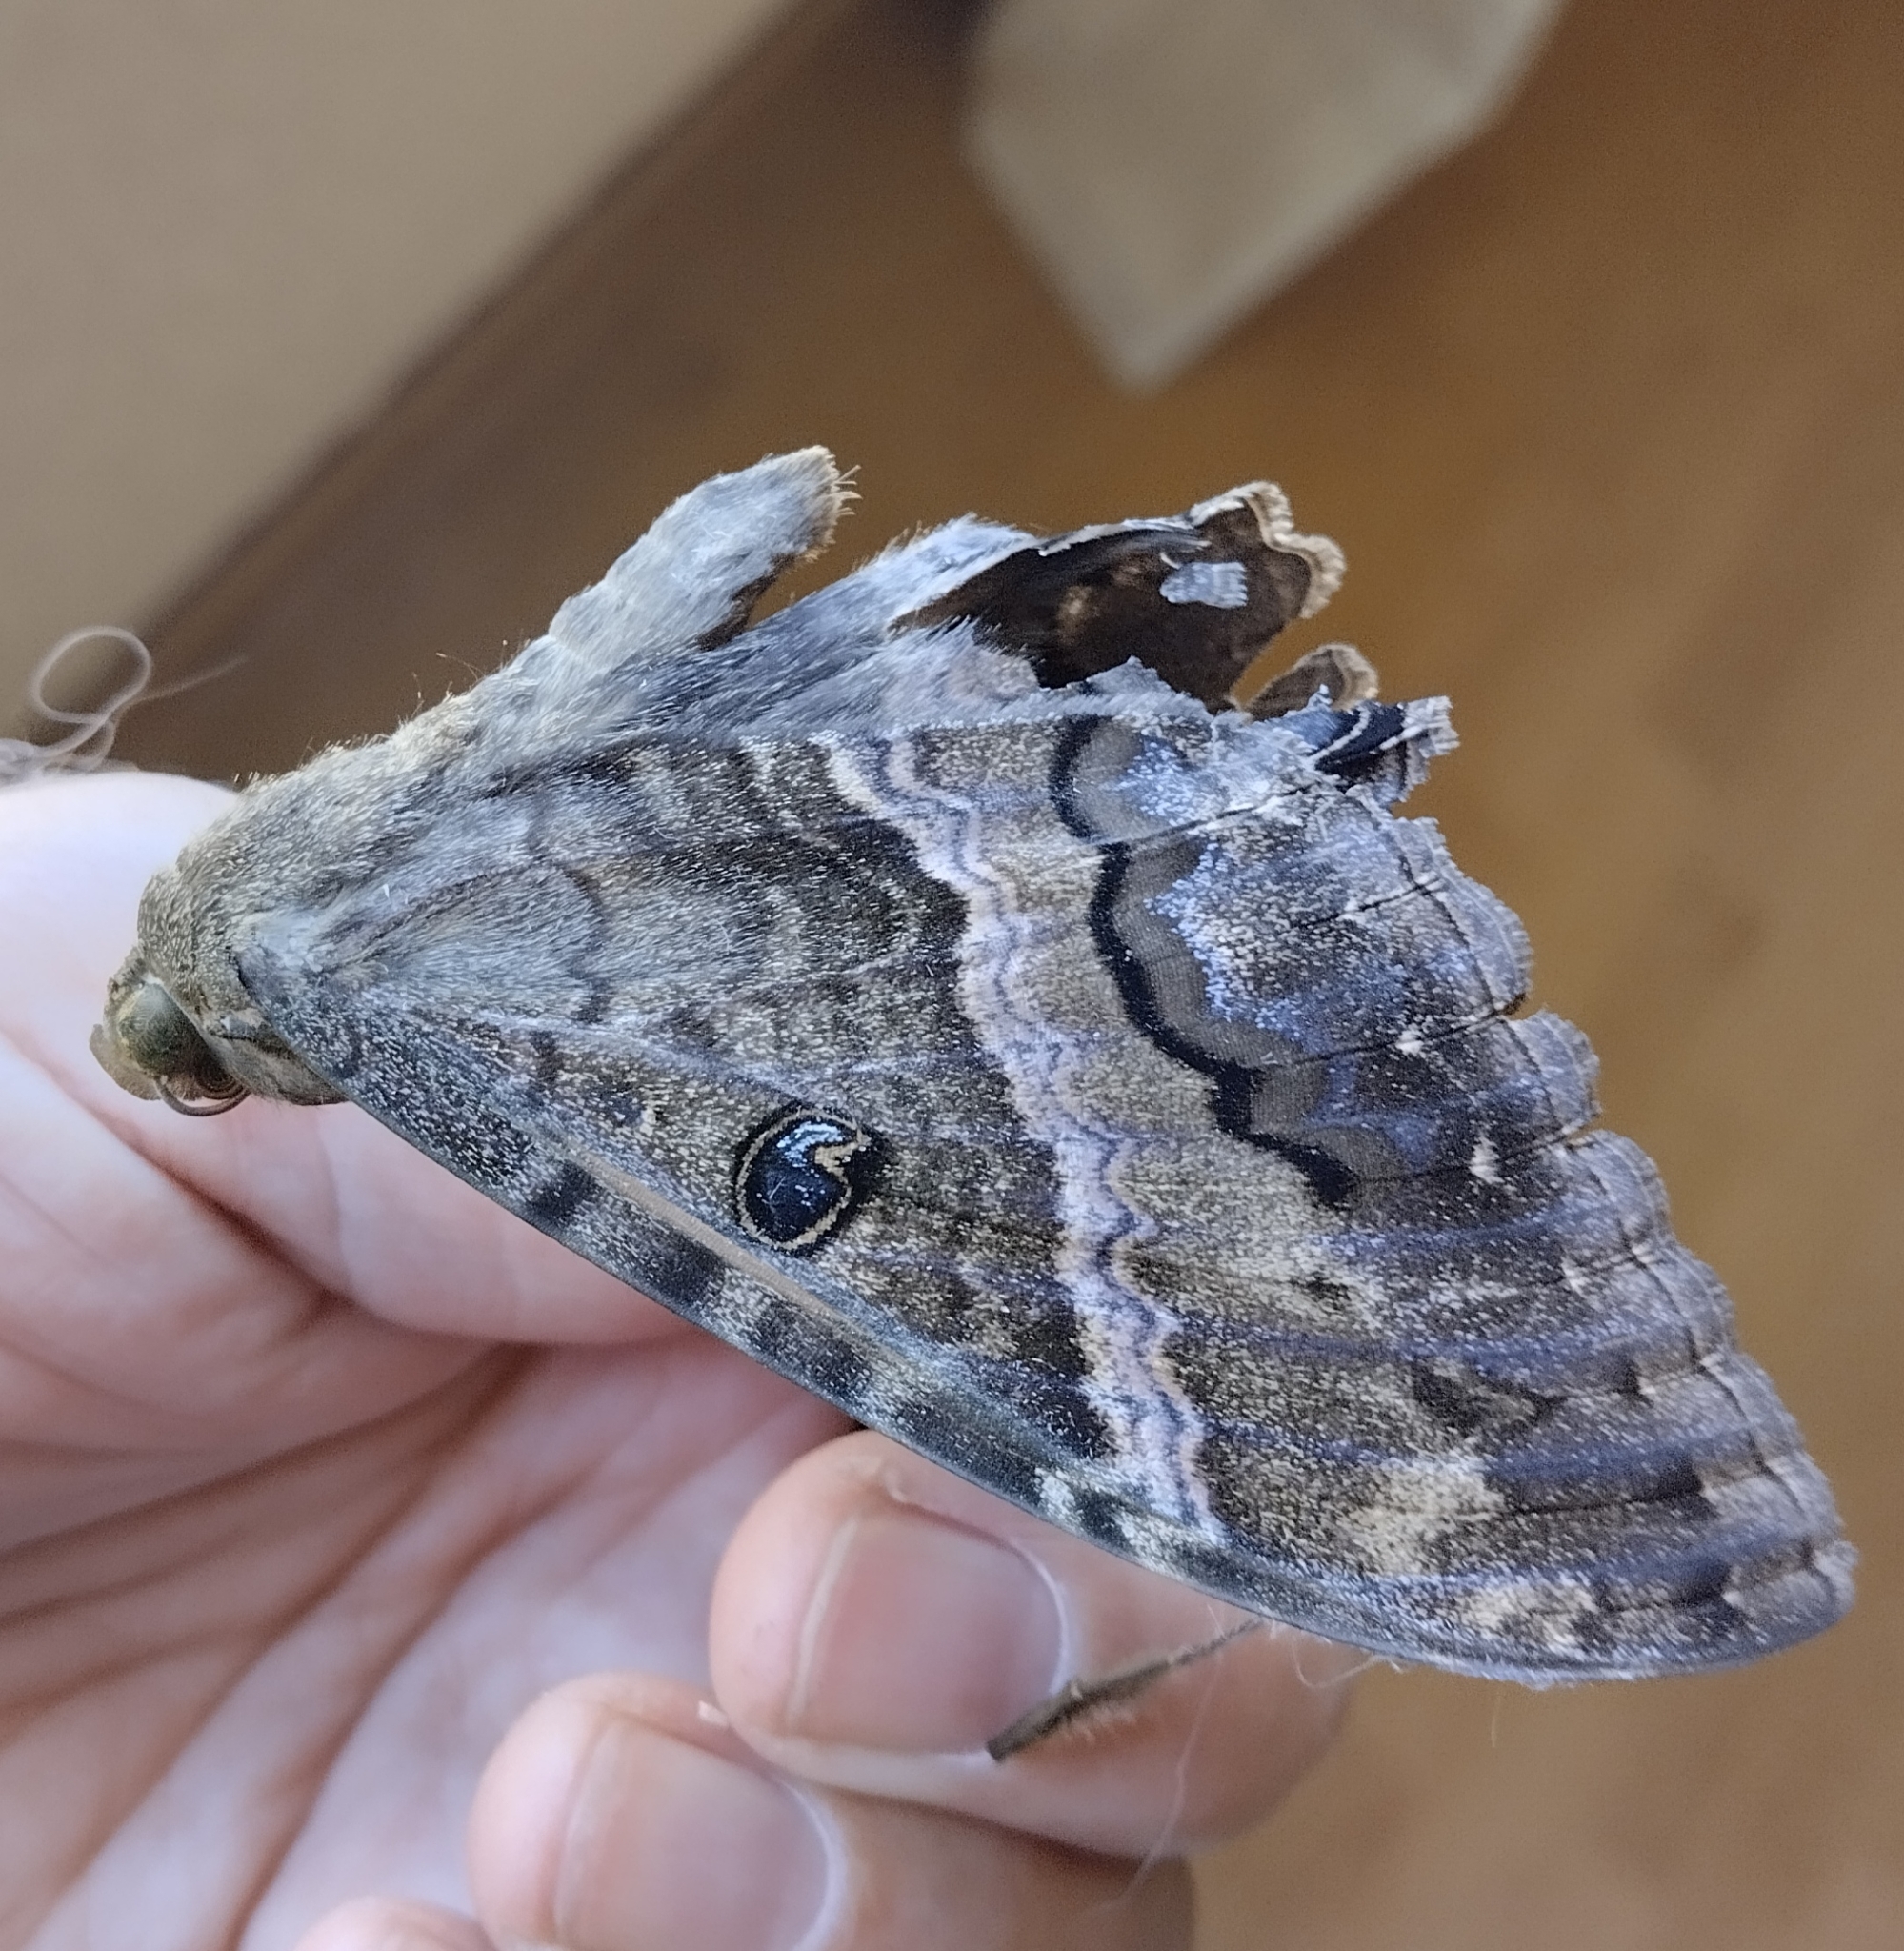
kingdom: Animalia
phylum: Arthropoda
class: Insecta
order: Lepidoptera
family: Erebidae
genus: Ascalapha
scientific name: Ascalapha odorata
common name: Black witch
